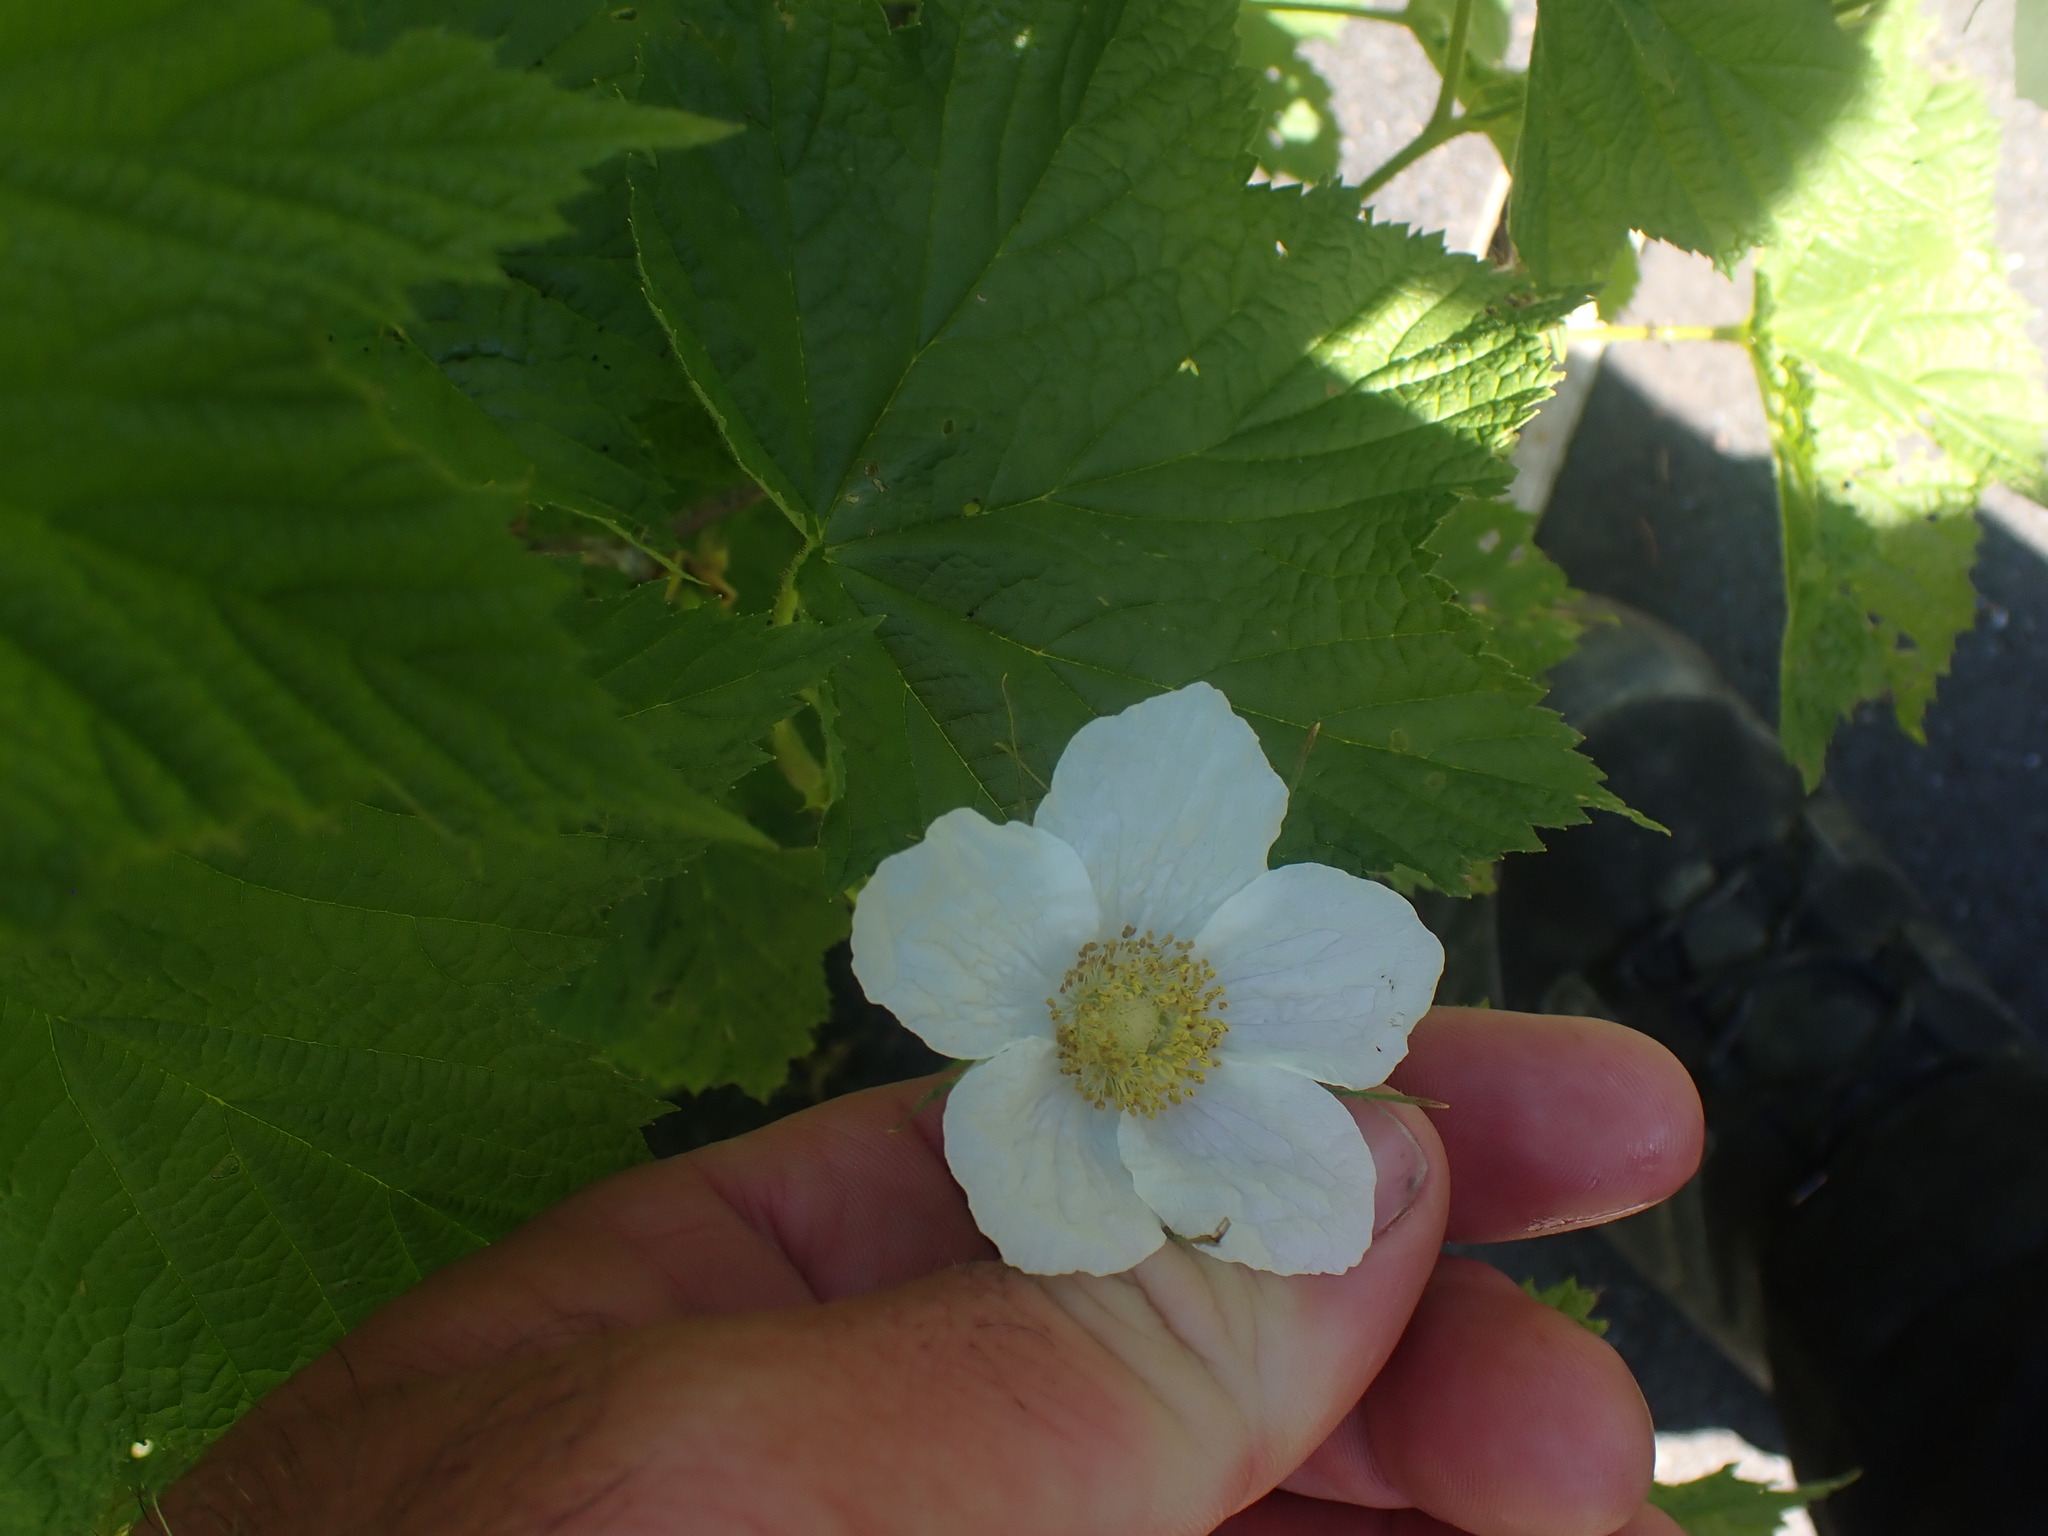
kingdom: Plantae
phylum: Tracheophyta
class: Magnoliopsida
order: Rosales
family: Rosaceae
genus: Rubus
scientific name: Rubus parviflorus
